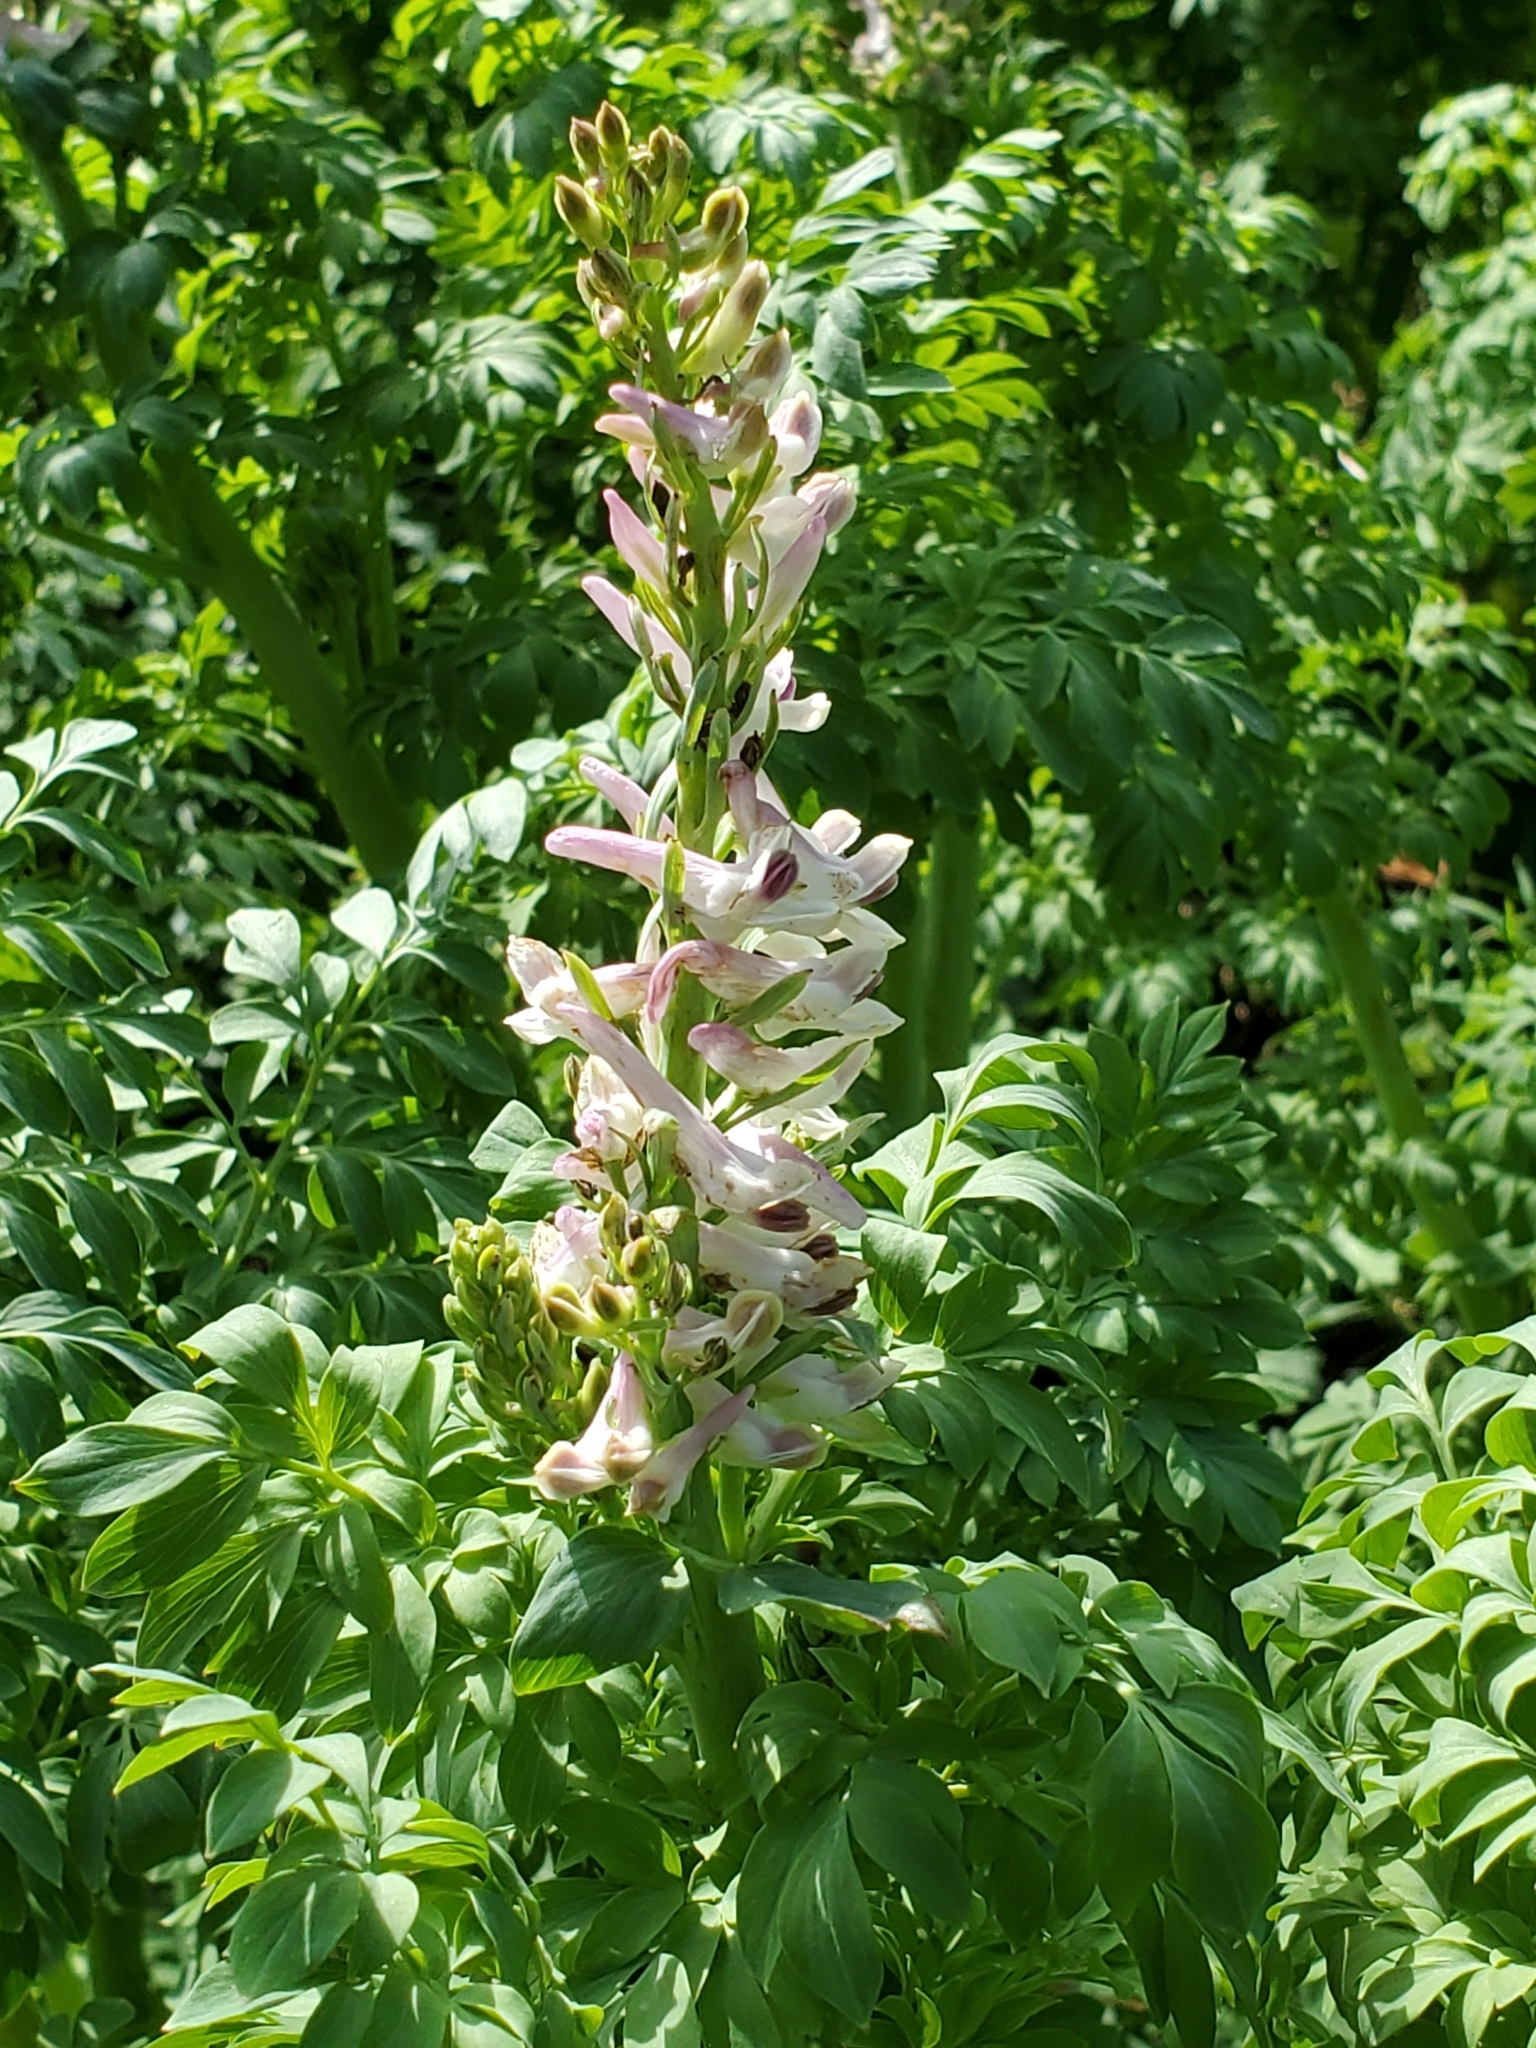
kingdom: Plantae
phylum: Tracheophyta
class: Magnoliopsida
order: Ranunculales
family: Papaveraceae
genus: Corydalis
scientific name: Corydalis caseana
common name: Fitweed
